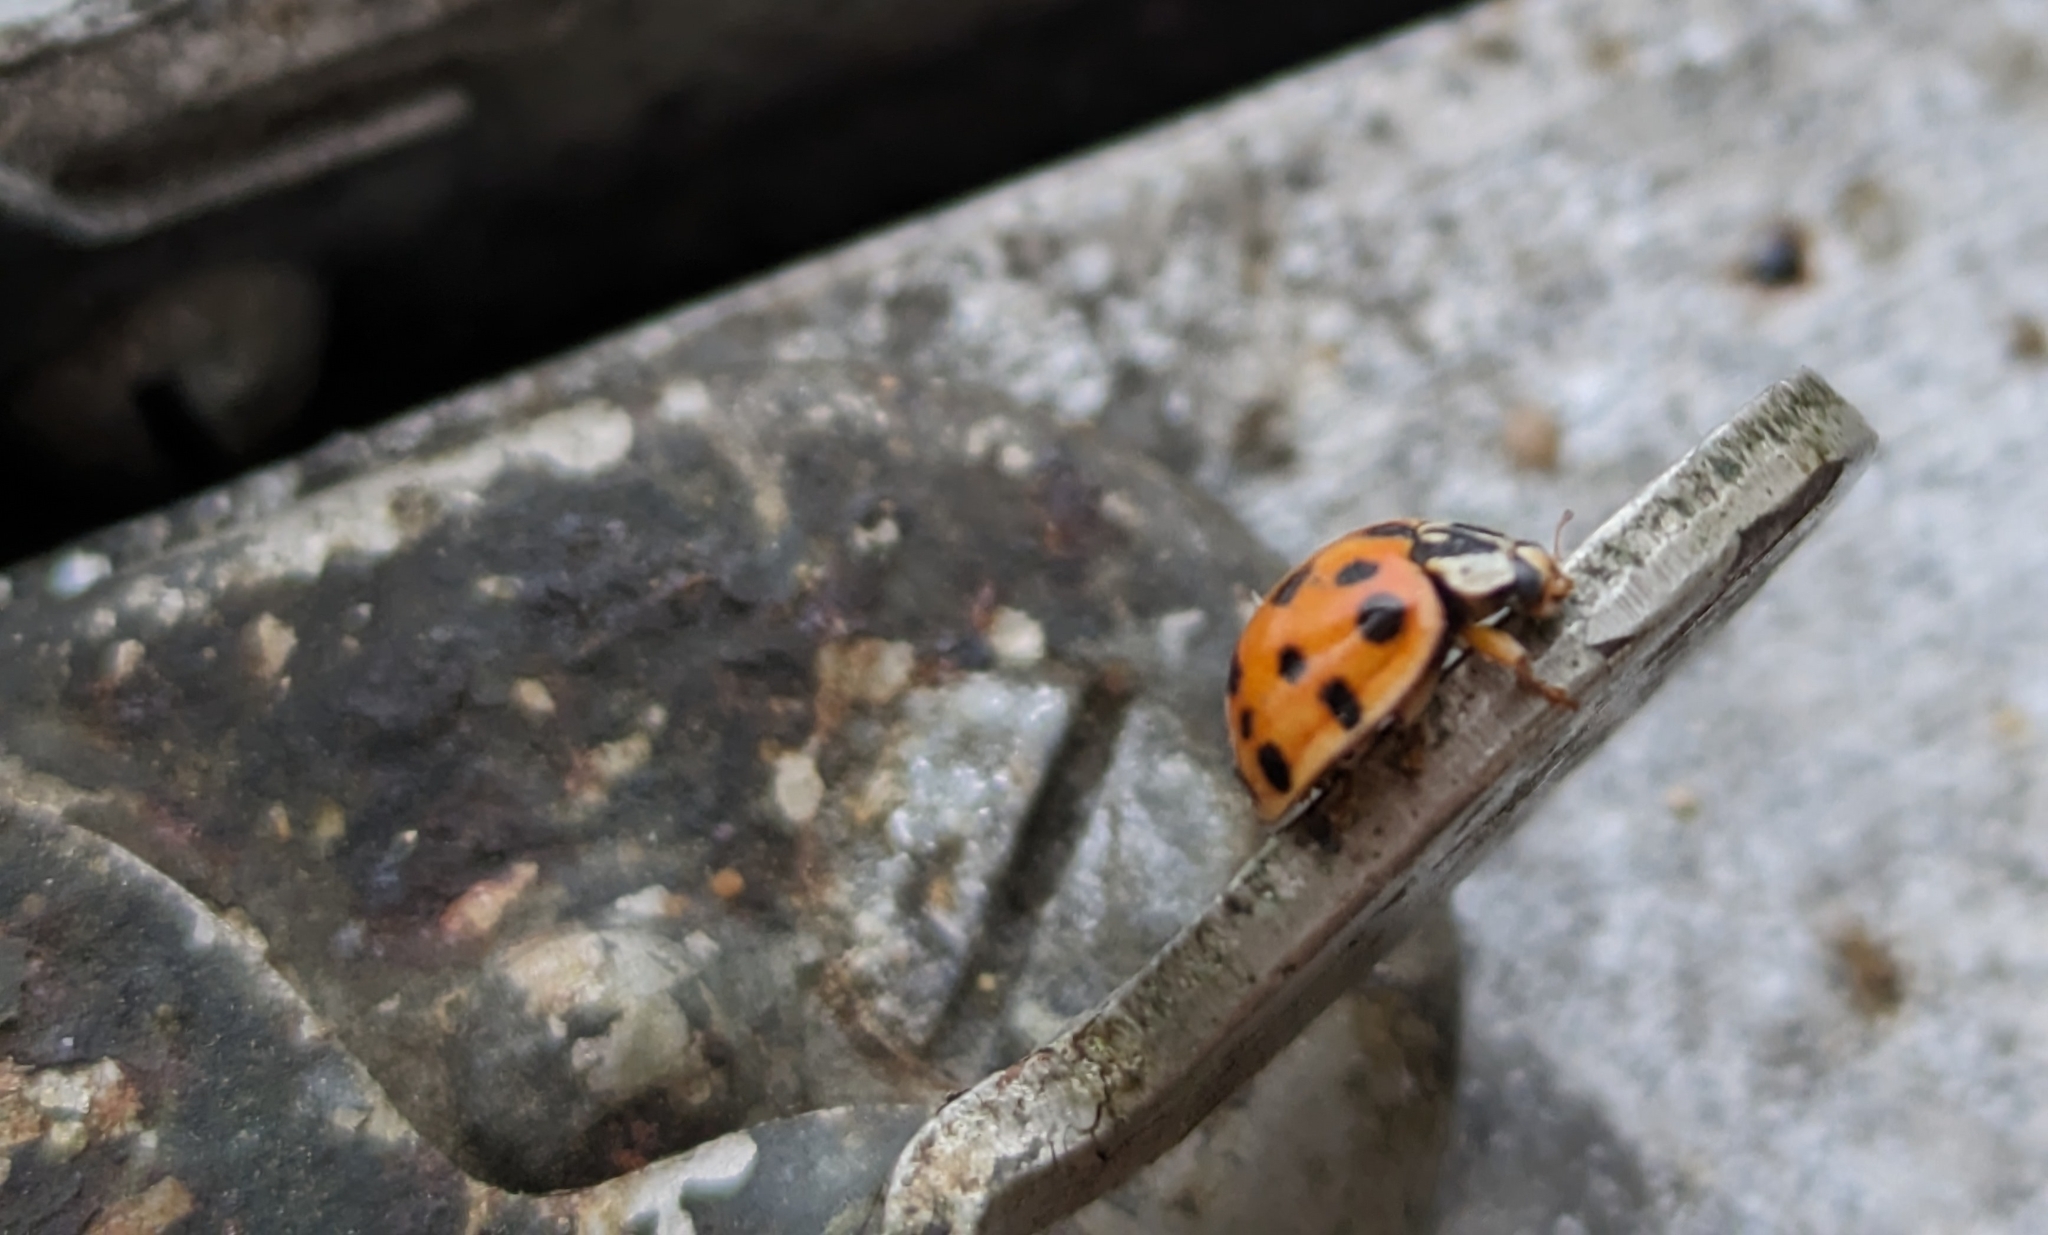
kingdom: Animalia
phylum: Arthropoda
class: Insecta
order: Coleoptera
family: Coccinellidae
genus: Harmonia
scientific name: Harmonia axyridis
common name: Harlequin ladybird
